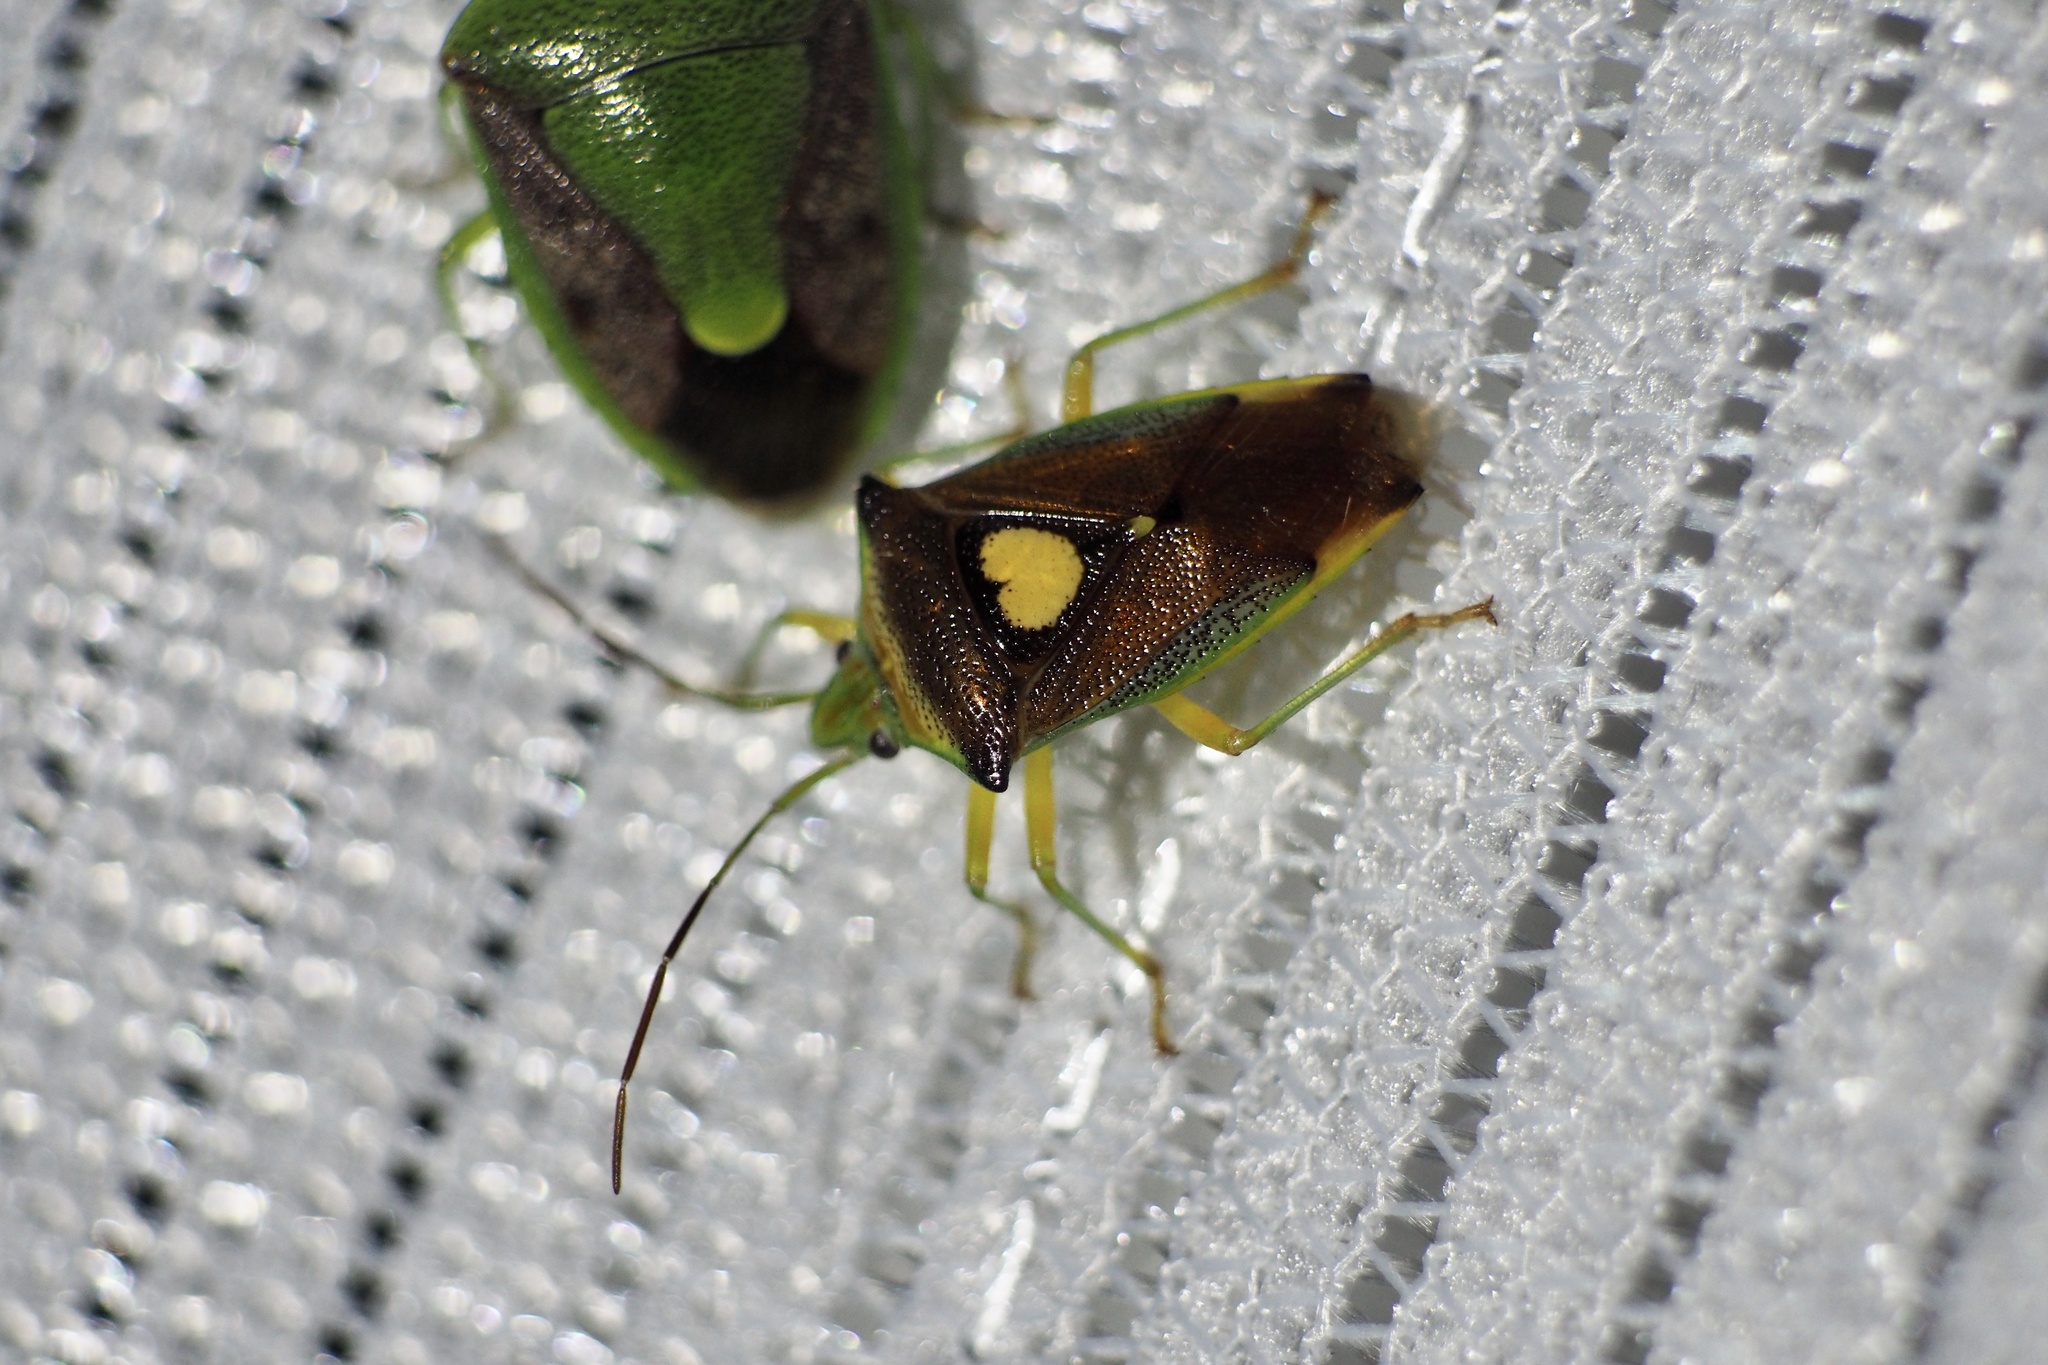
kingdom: Animalia
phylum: Arthropoda
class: Insecta
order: Hemiptera
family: Acanthosomatidae
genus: Sastragala
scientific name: Sastragala esakii
